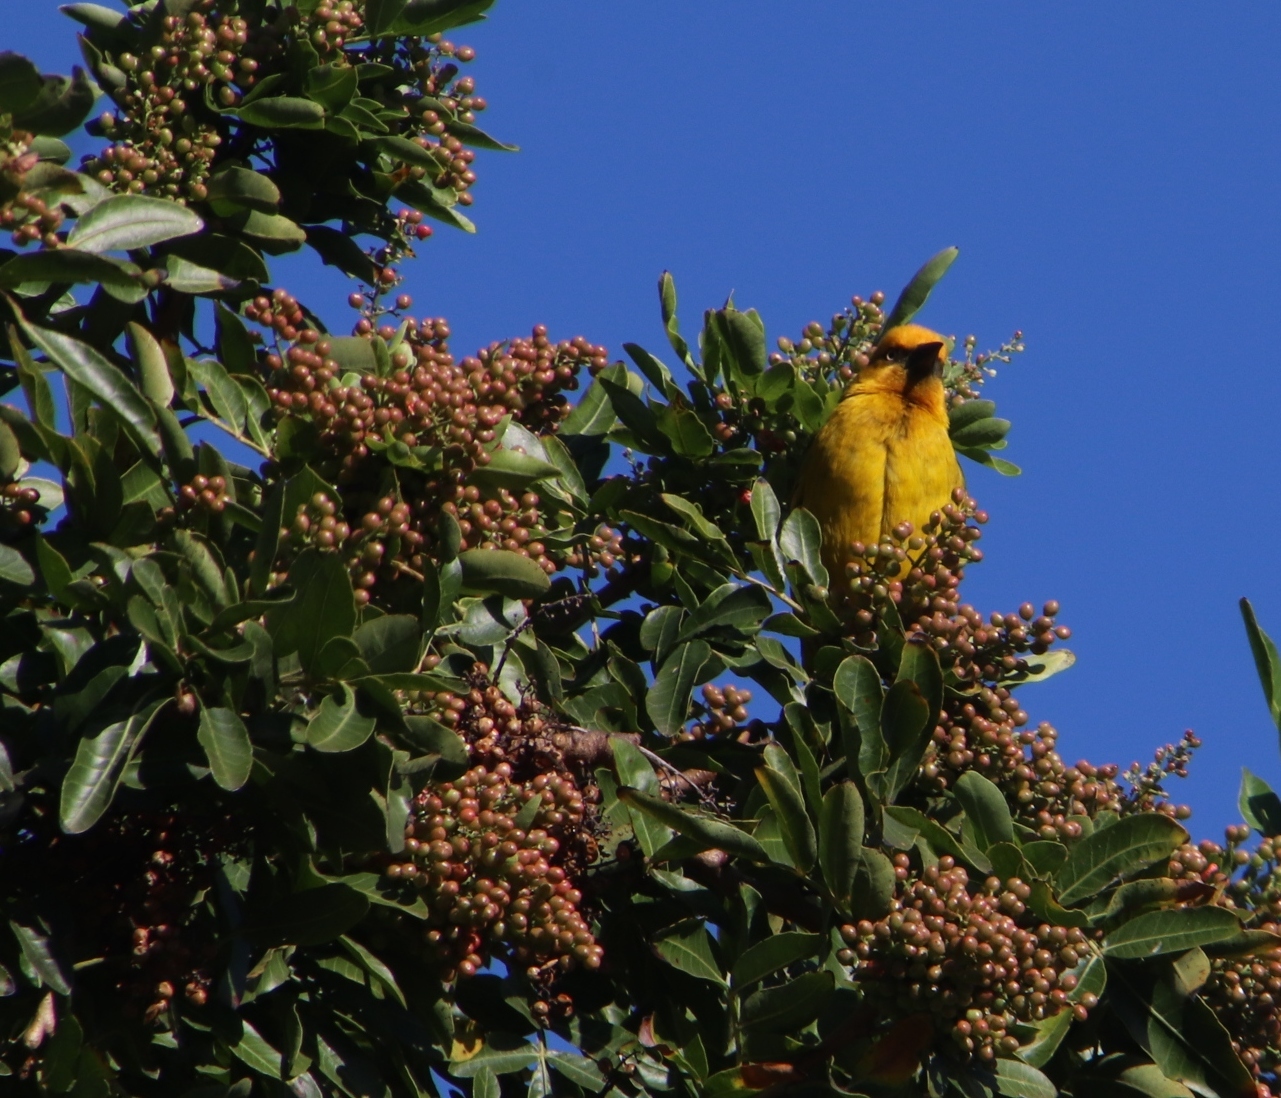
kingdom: Animalia
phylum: Chordata
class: Aves
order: Passeriformes
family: Ploceidae
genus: Ploceus
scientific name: Ploceus capensis
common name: Cape weaver
